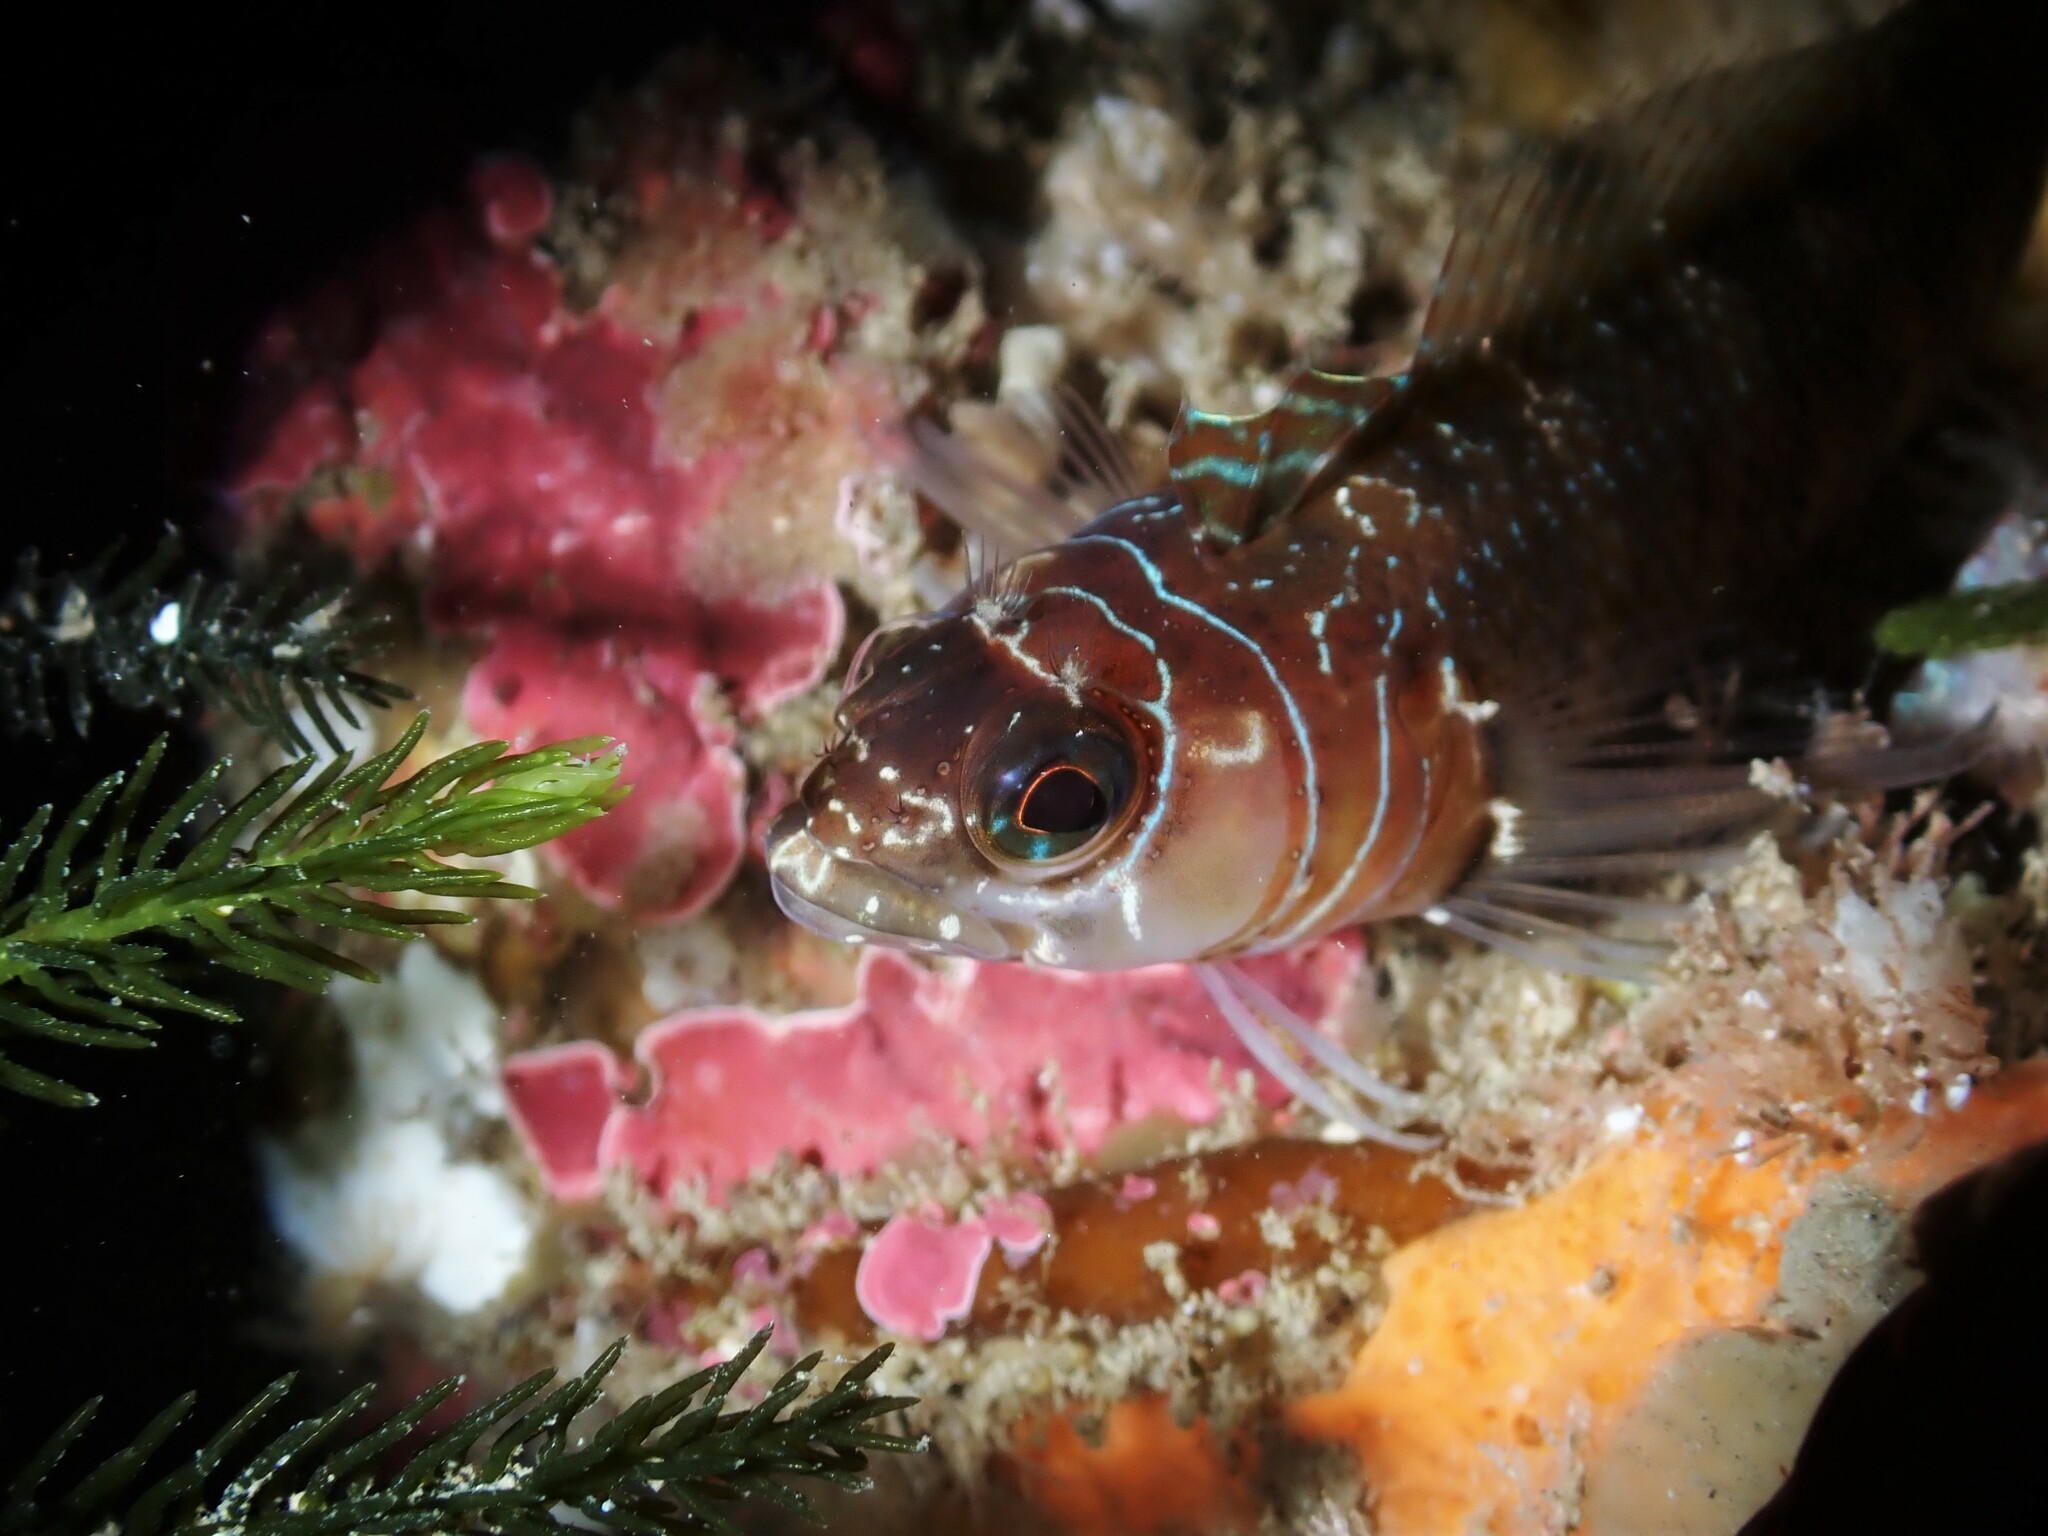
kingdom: Animalia
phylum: Chordata
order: Perciformes
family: Tripterygiidae
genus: Ruanoho
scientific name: Ruanoho whero
